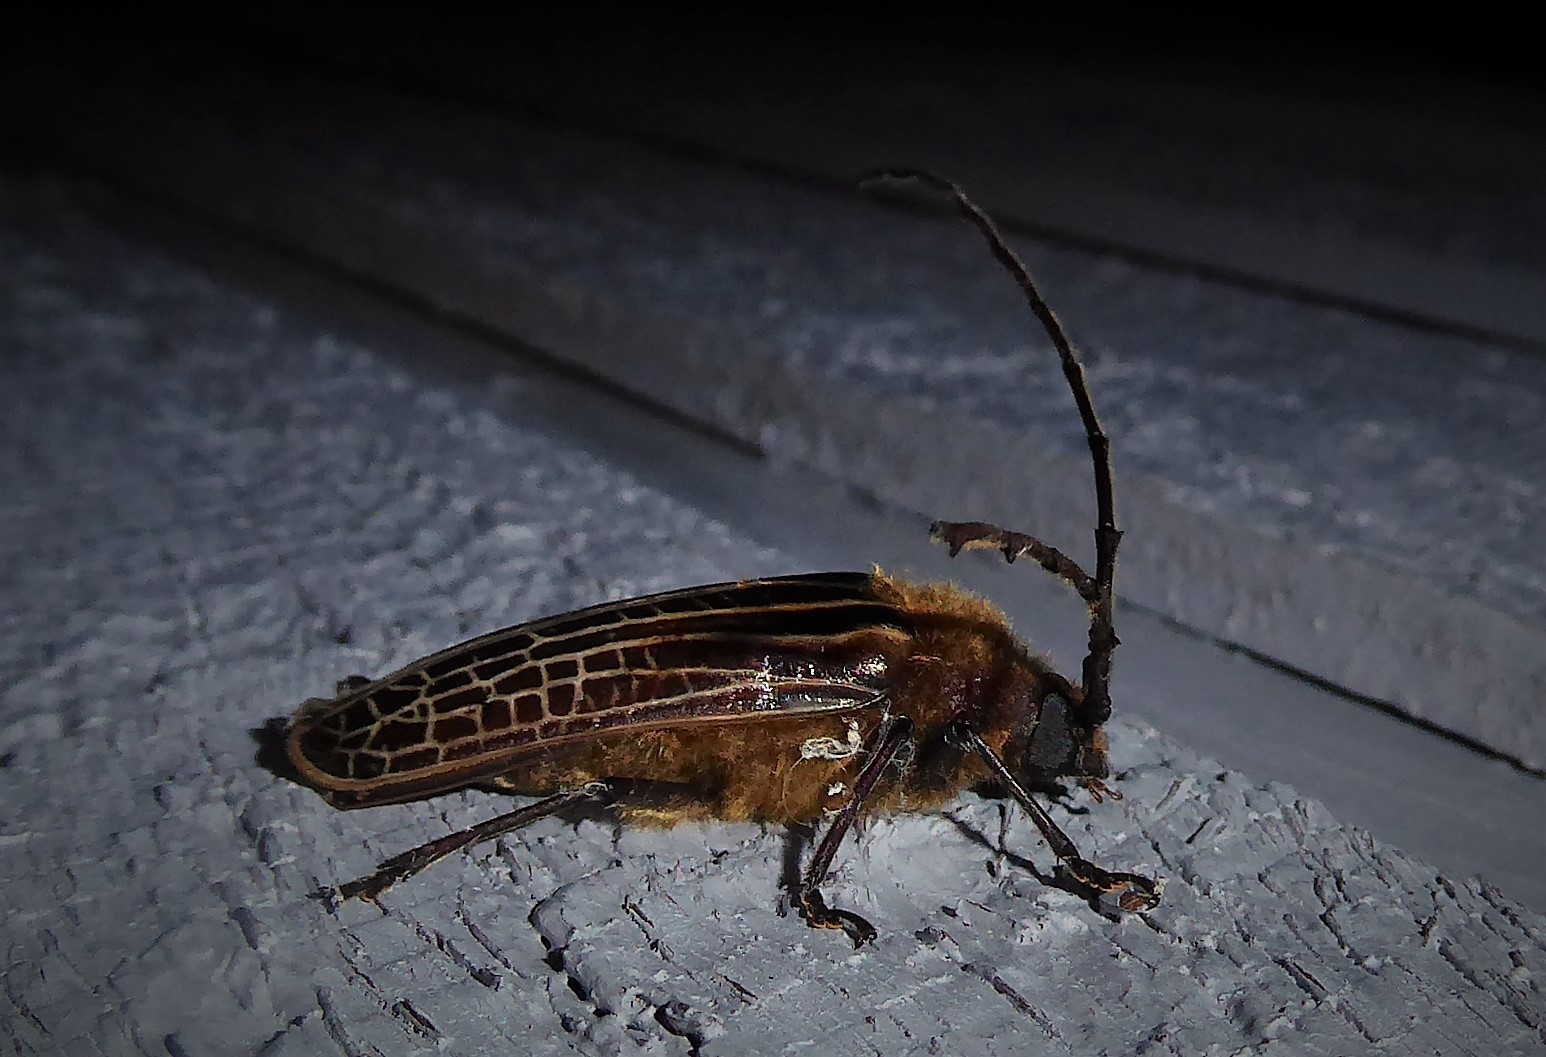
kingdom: Animalia
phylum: Arthropoda
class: Insecta
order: Coleoptera
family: Cerambycidae
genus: Prionoplus
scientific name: Prionoplus reticularis
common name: Huhu beetle
